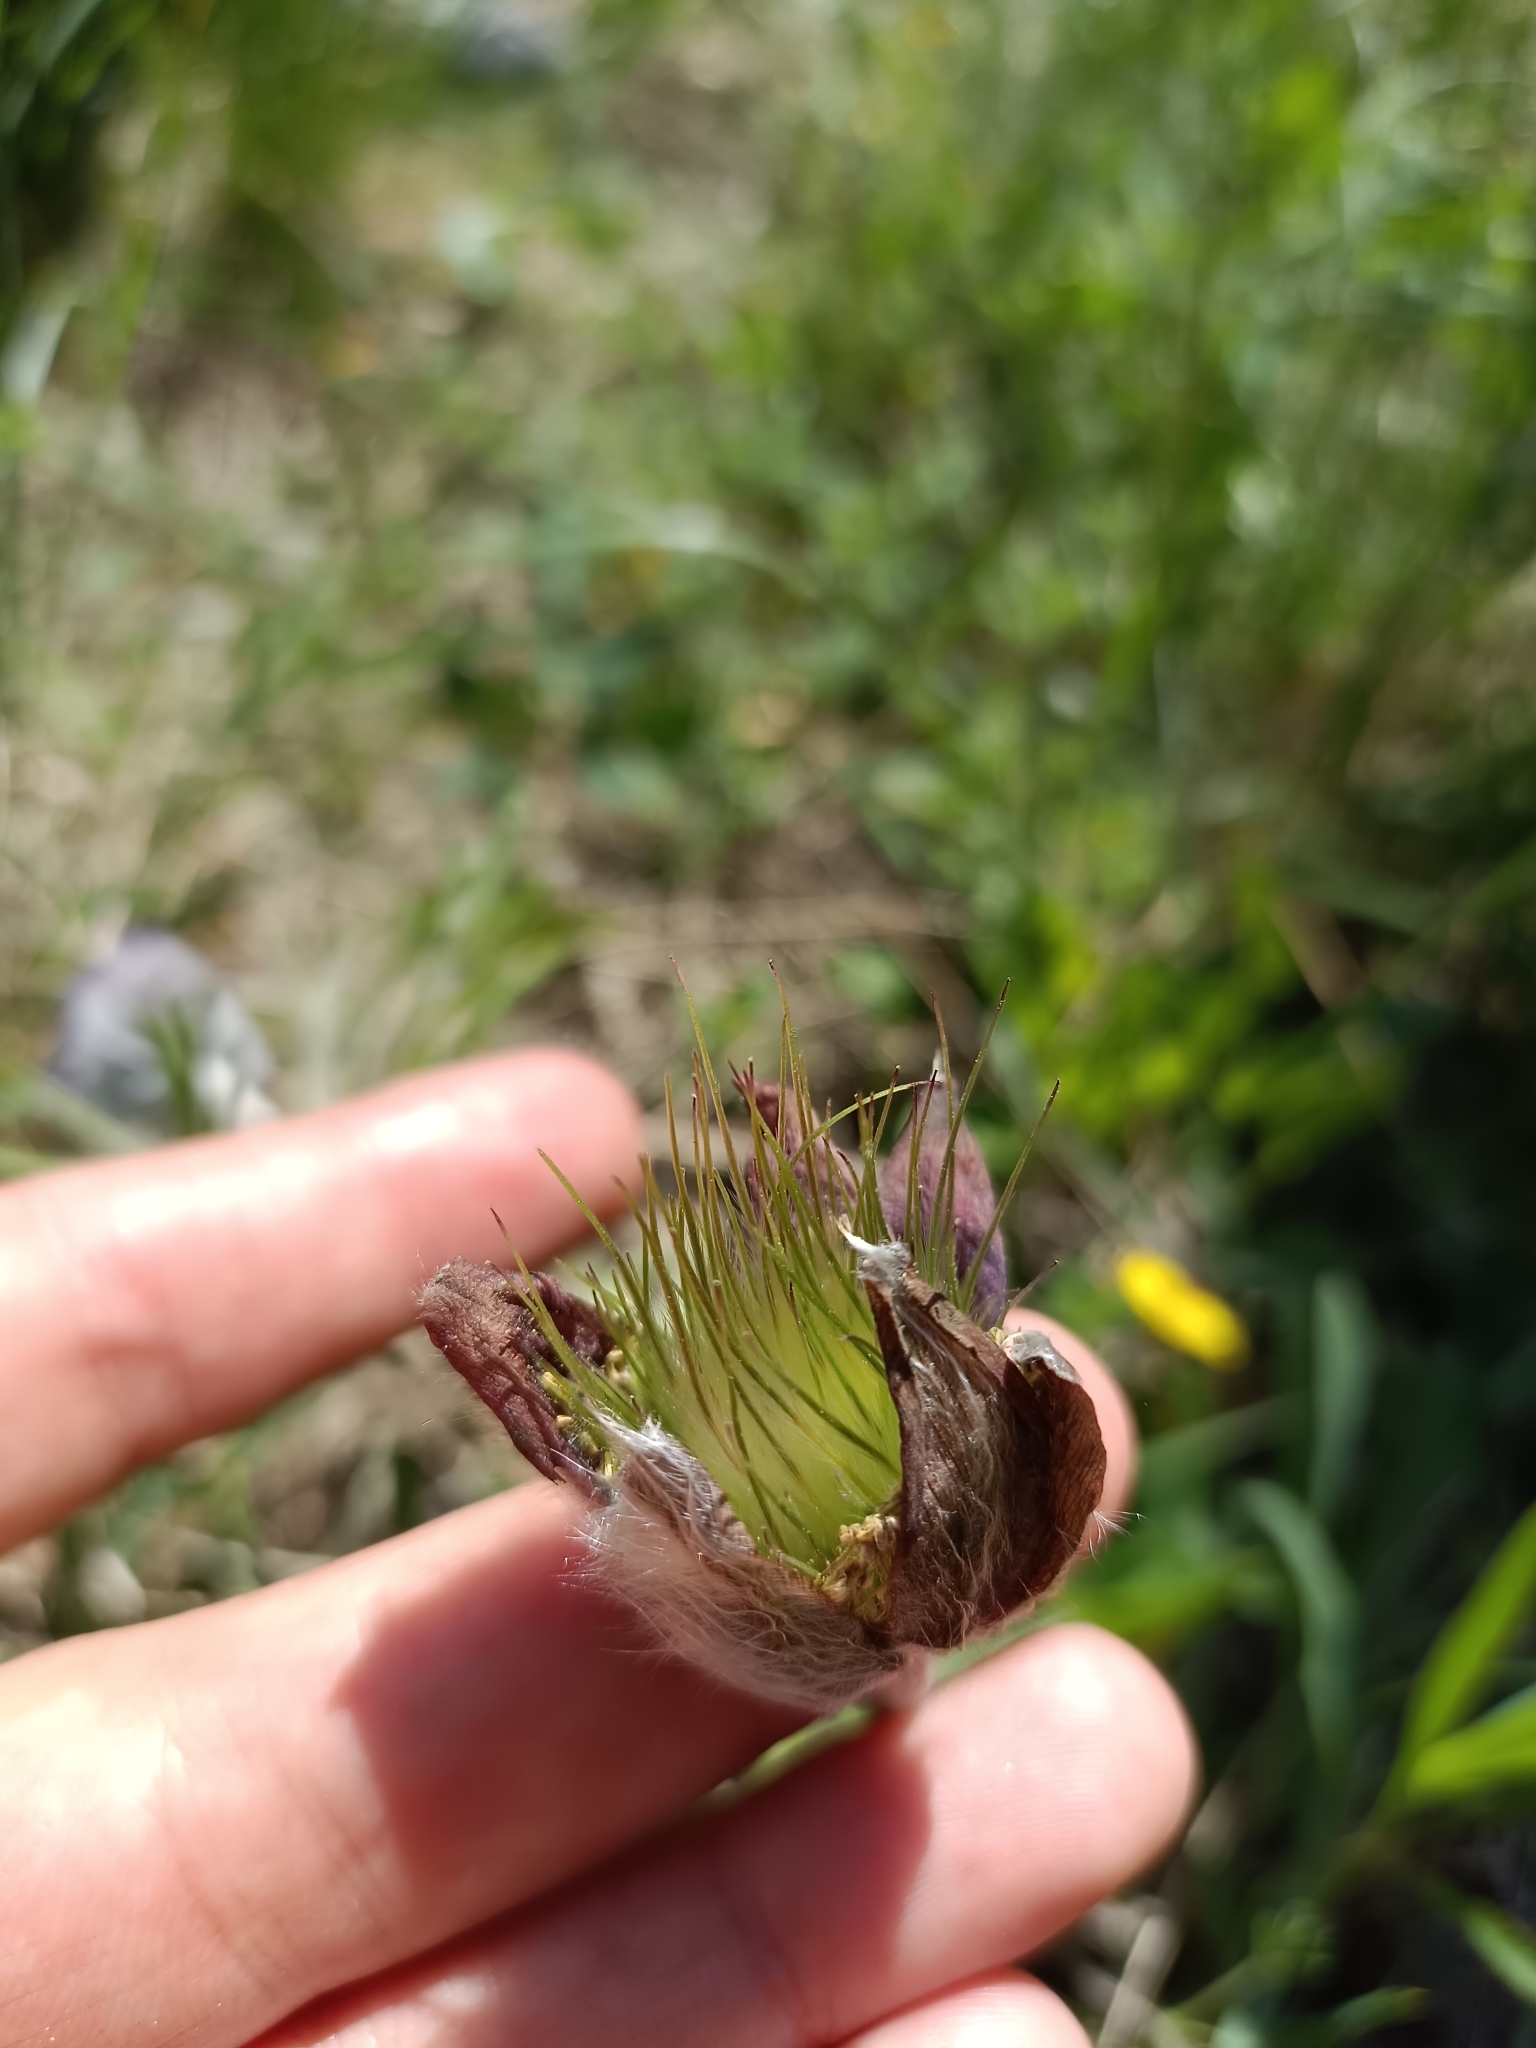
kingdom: Plantae
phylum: Tracheophyta
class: Magnoliopsida
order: Ranunculales
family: Ranunculaceae
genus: Pulsatilla
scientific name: Pulsatilla pratensis
